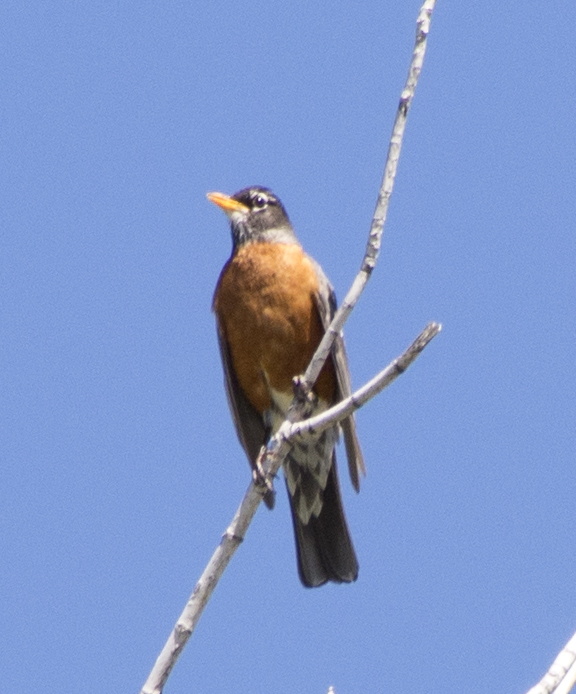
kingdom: Animalia
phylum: Chordata
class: Aves
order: Passeriformes
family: Turdidae
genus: Turdus
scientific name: Turdus migratorius
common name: American robin
